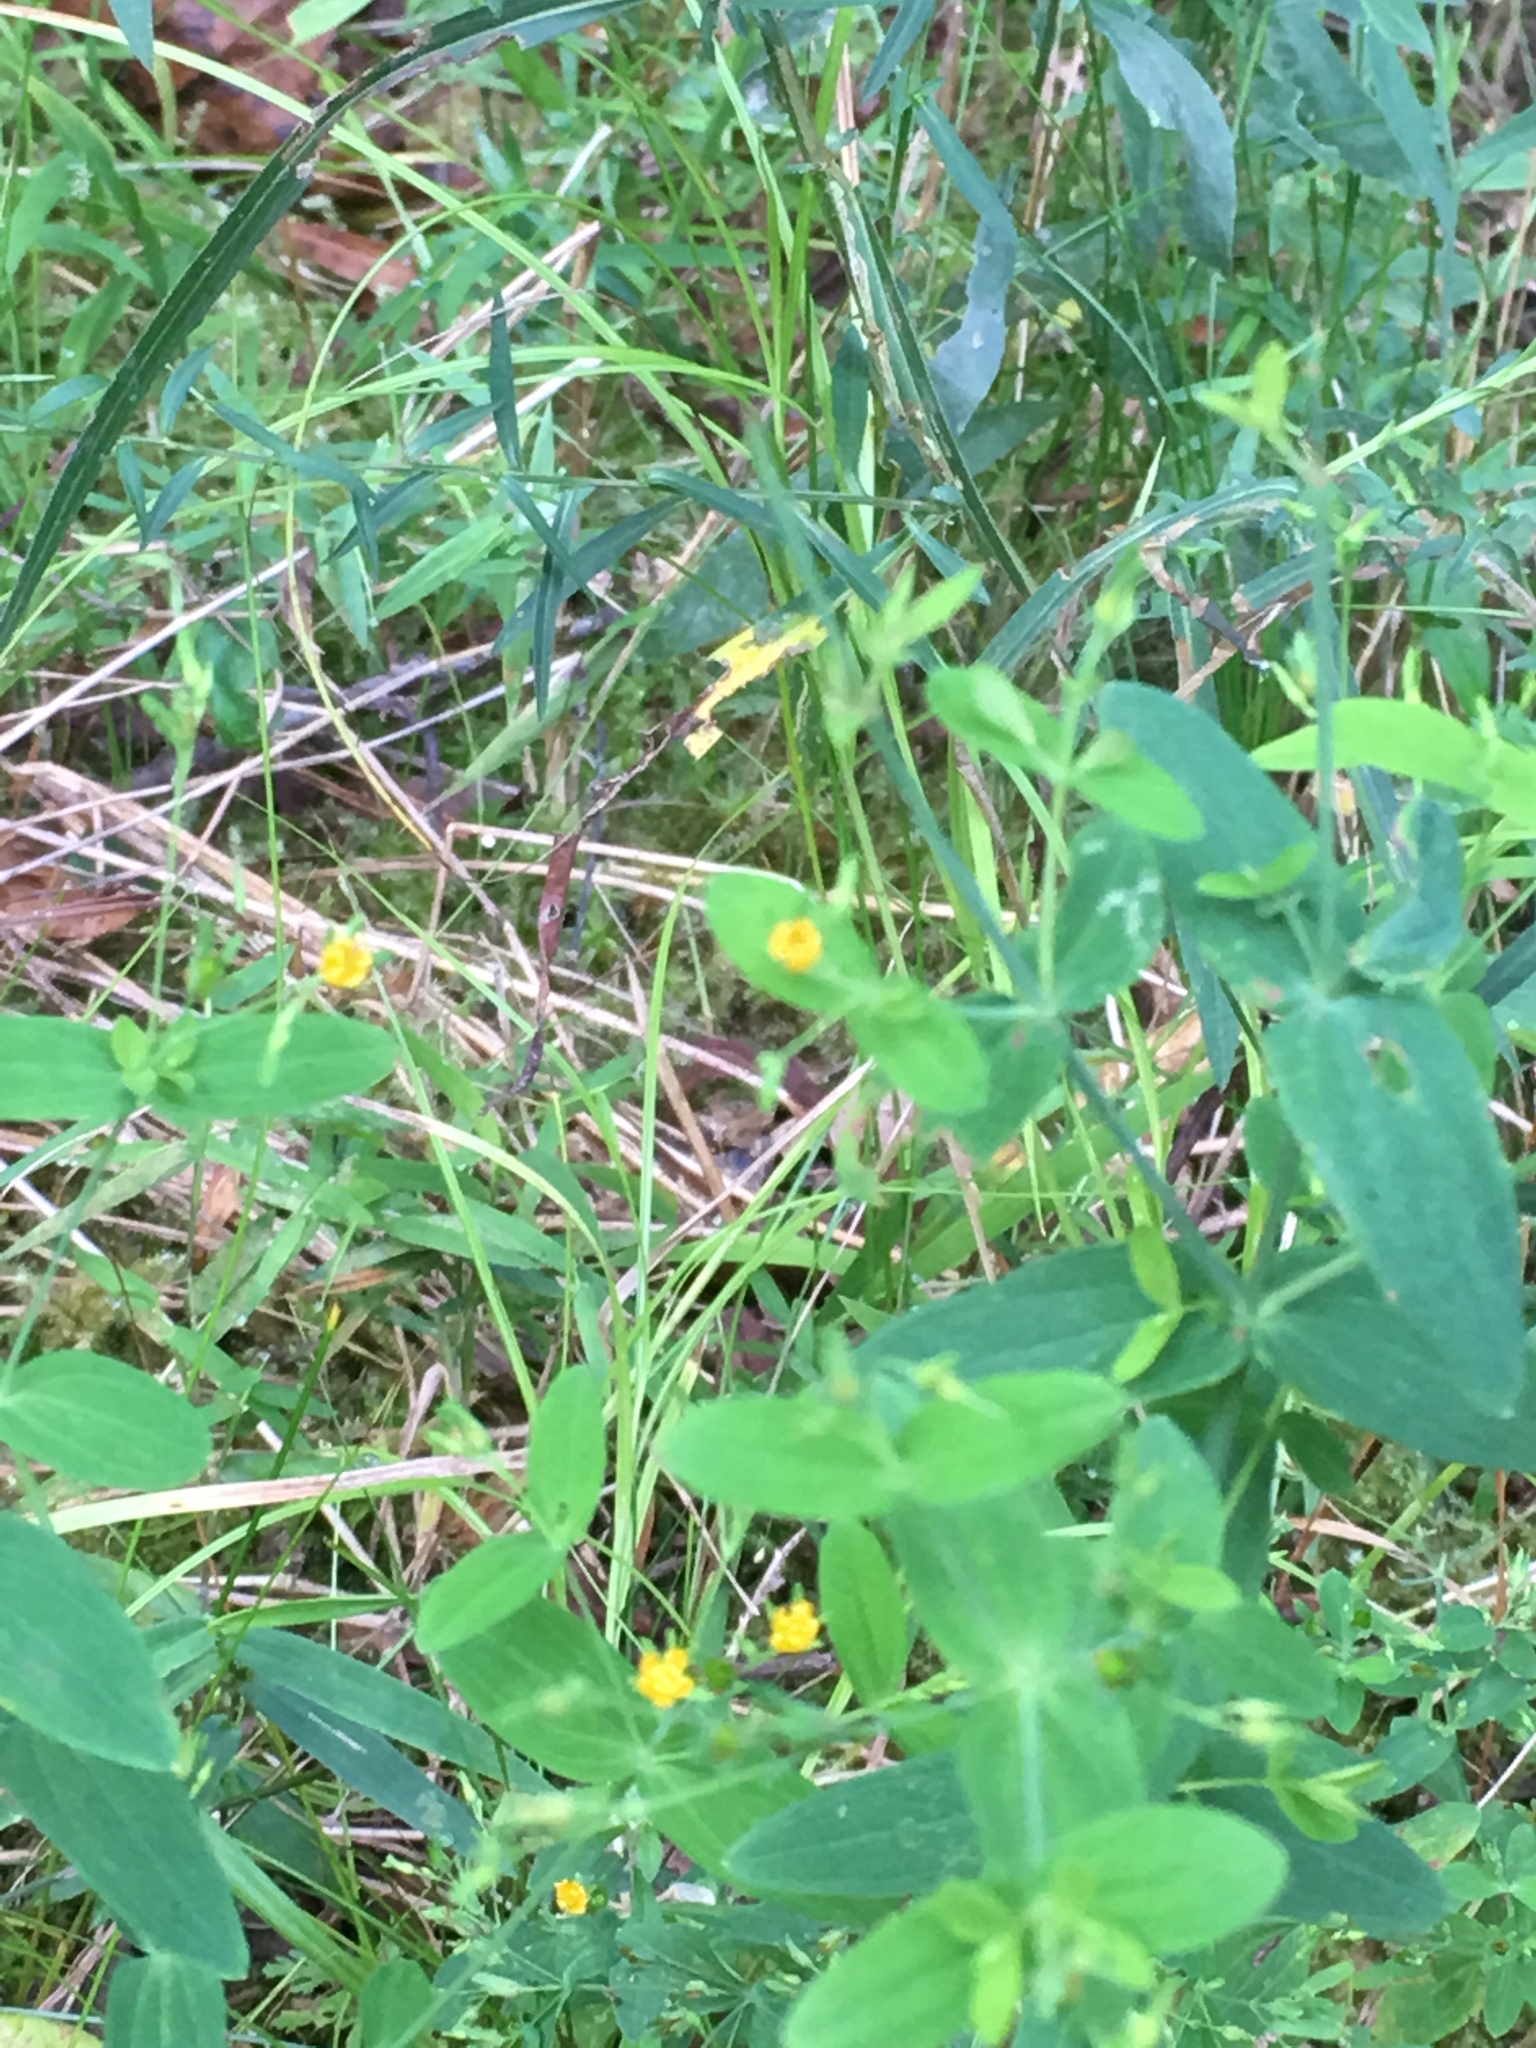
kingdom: Plantae
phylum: Tracheophyta
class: Magnoliopsida
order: Malpighiales
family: Hypericaceae
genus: Hypericum
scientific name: Hypericum mutilum
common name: Dwarf st. john's-wort
